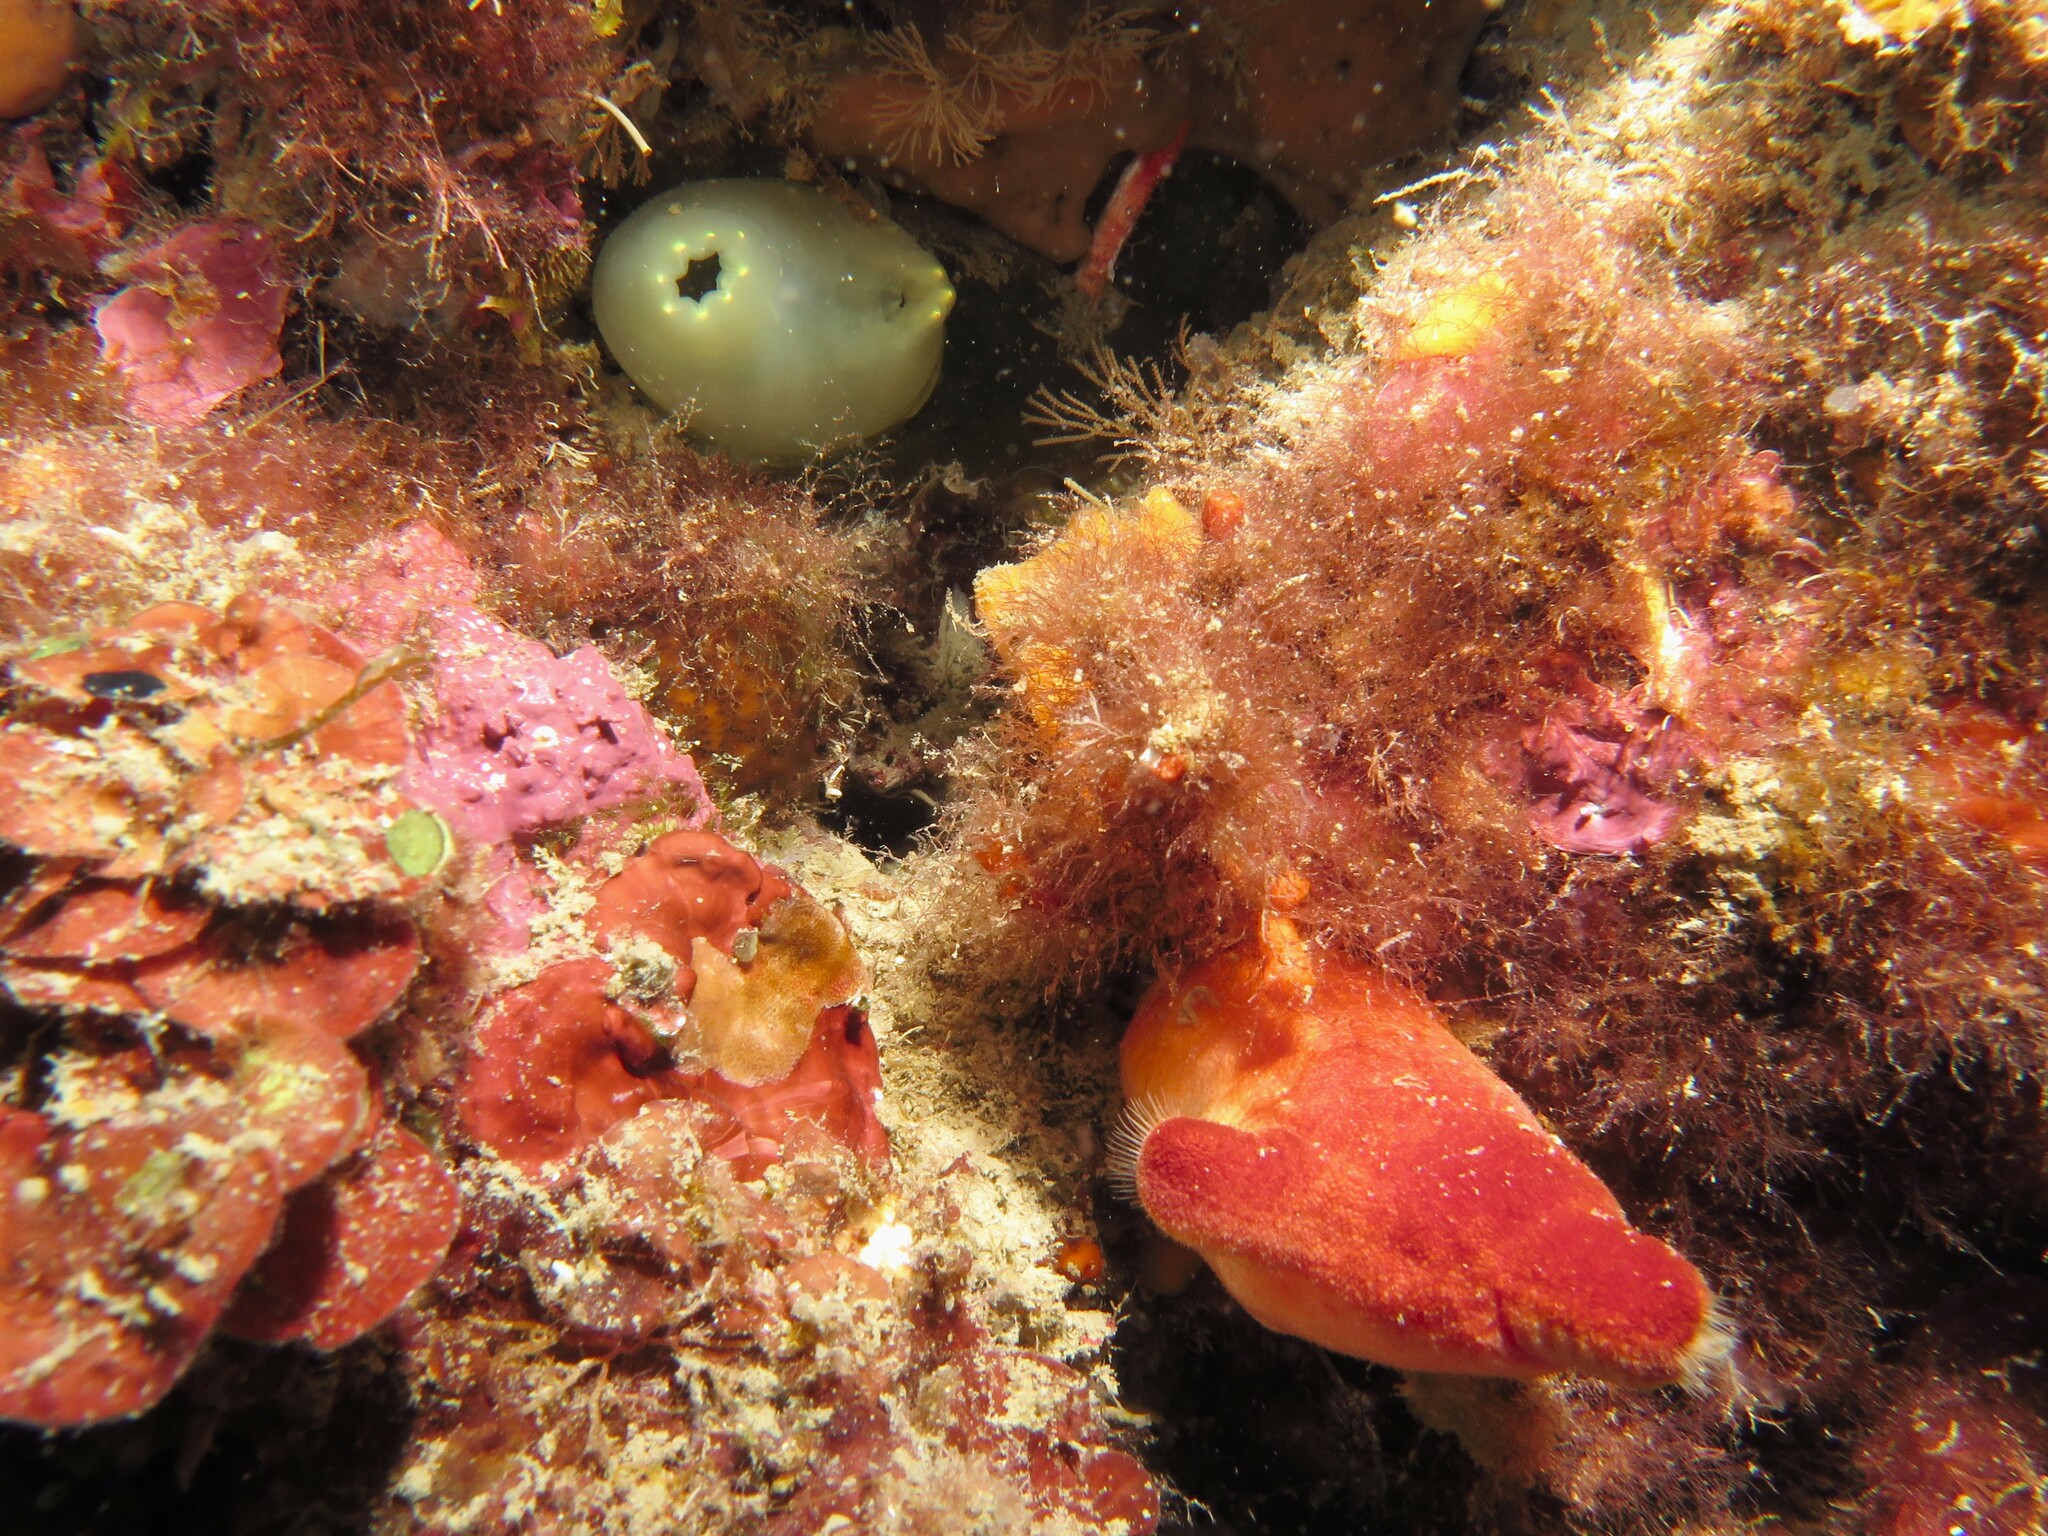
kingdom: Animalia
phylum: Chordata
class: Ascidiacea
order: Phlebobranchia
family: Cionidae
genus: Ciona
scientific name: Ciona edwardsi
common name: Yellow sea squirt
